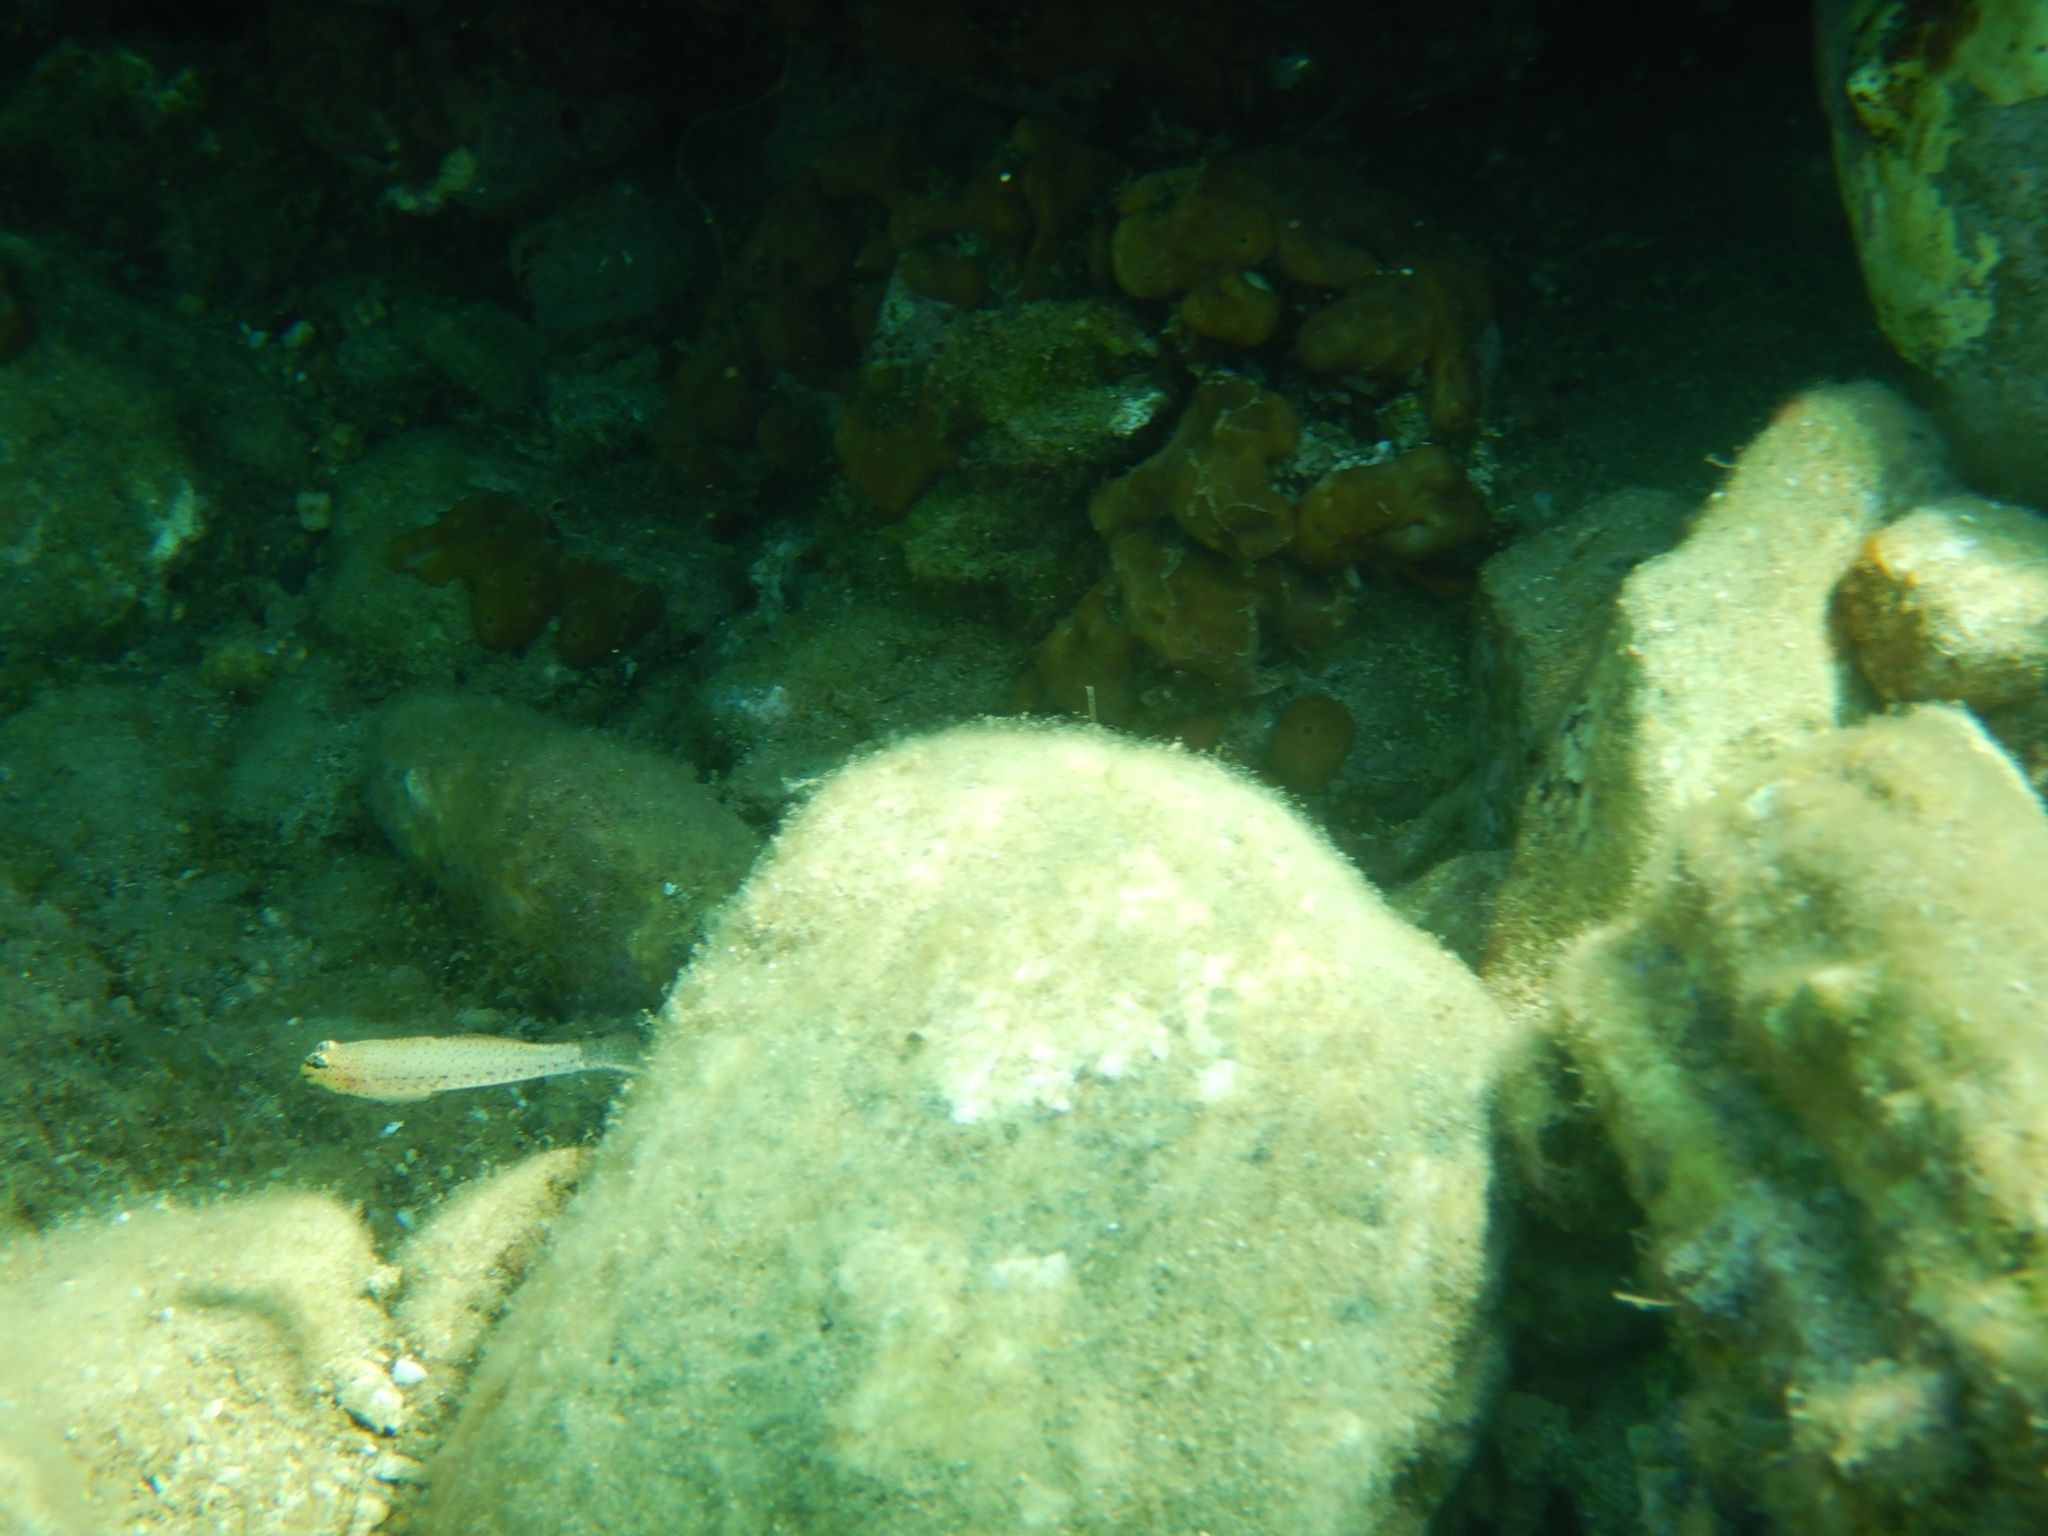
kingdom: Animalia
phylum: Chordata
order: Perciformes
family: Gobiidae
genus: Gobius
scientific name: Gobius
